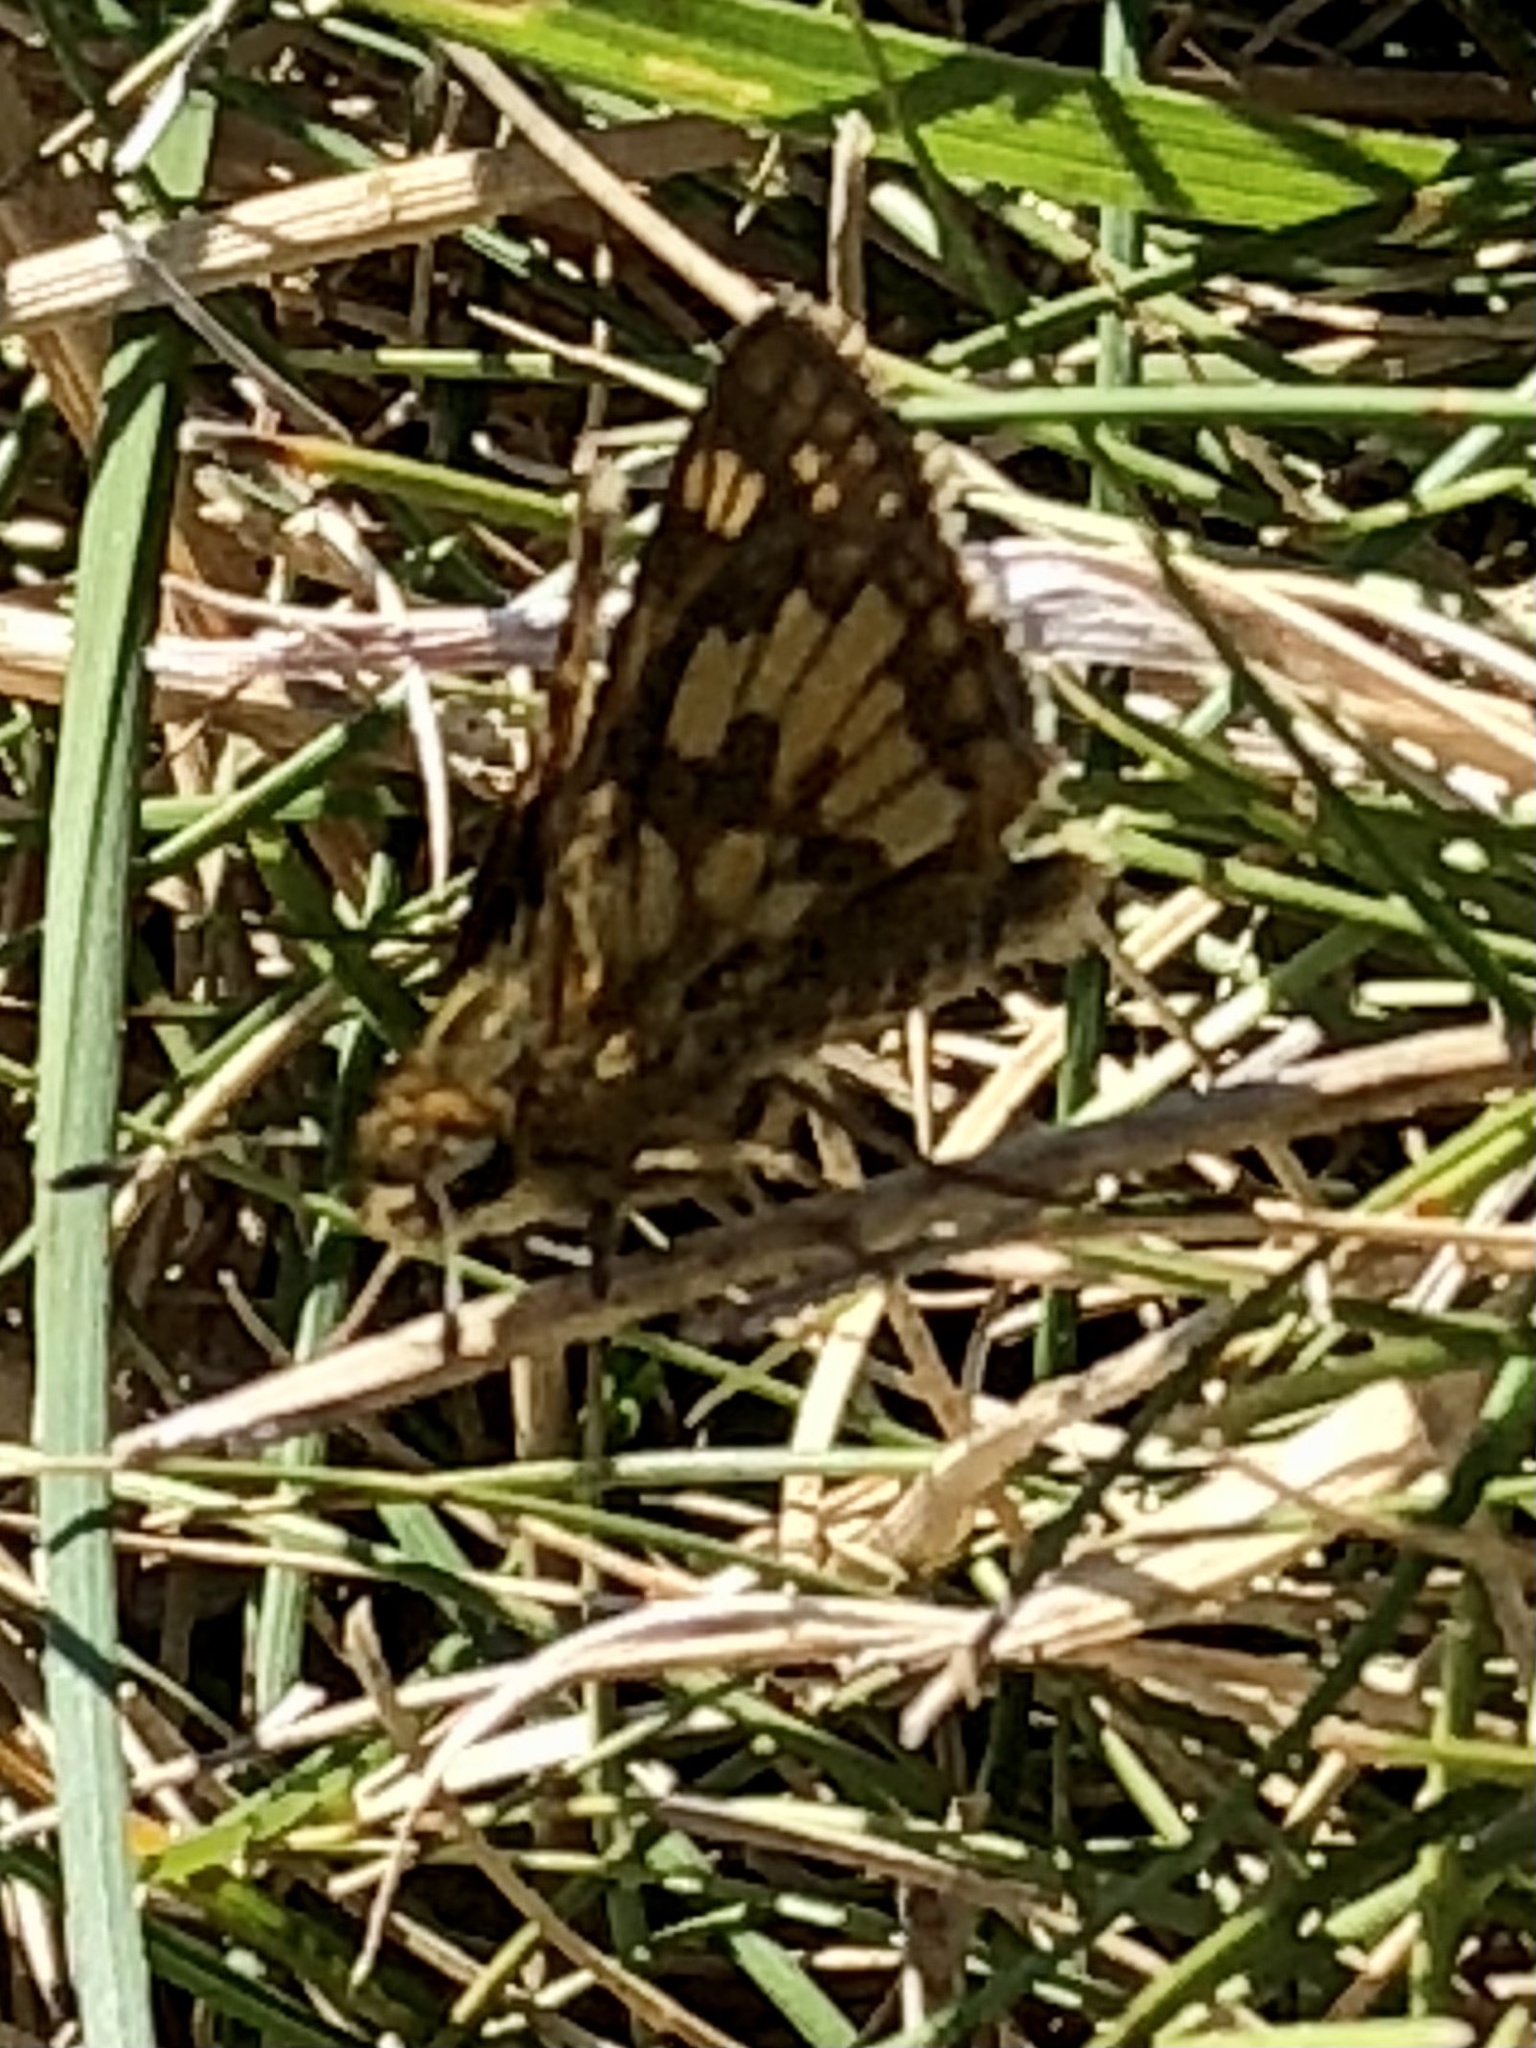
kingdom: Animalia
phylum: Arthropoda
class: Insecta
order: Lepidoptera
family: Hesperiidae
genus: Polites
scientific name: Polites coras
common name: Peck's skipper
